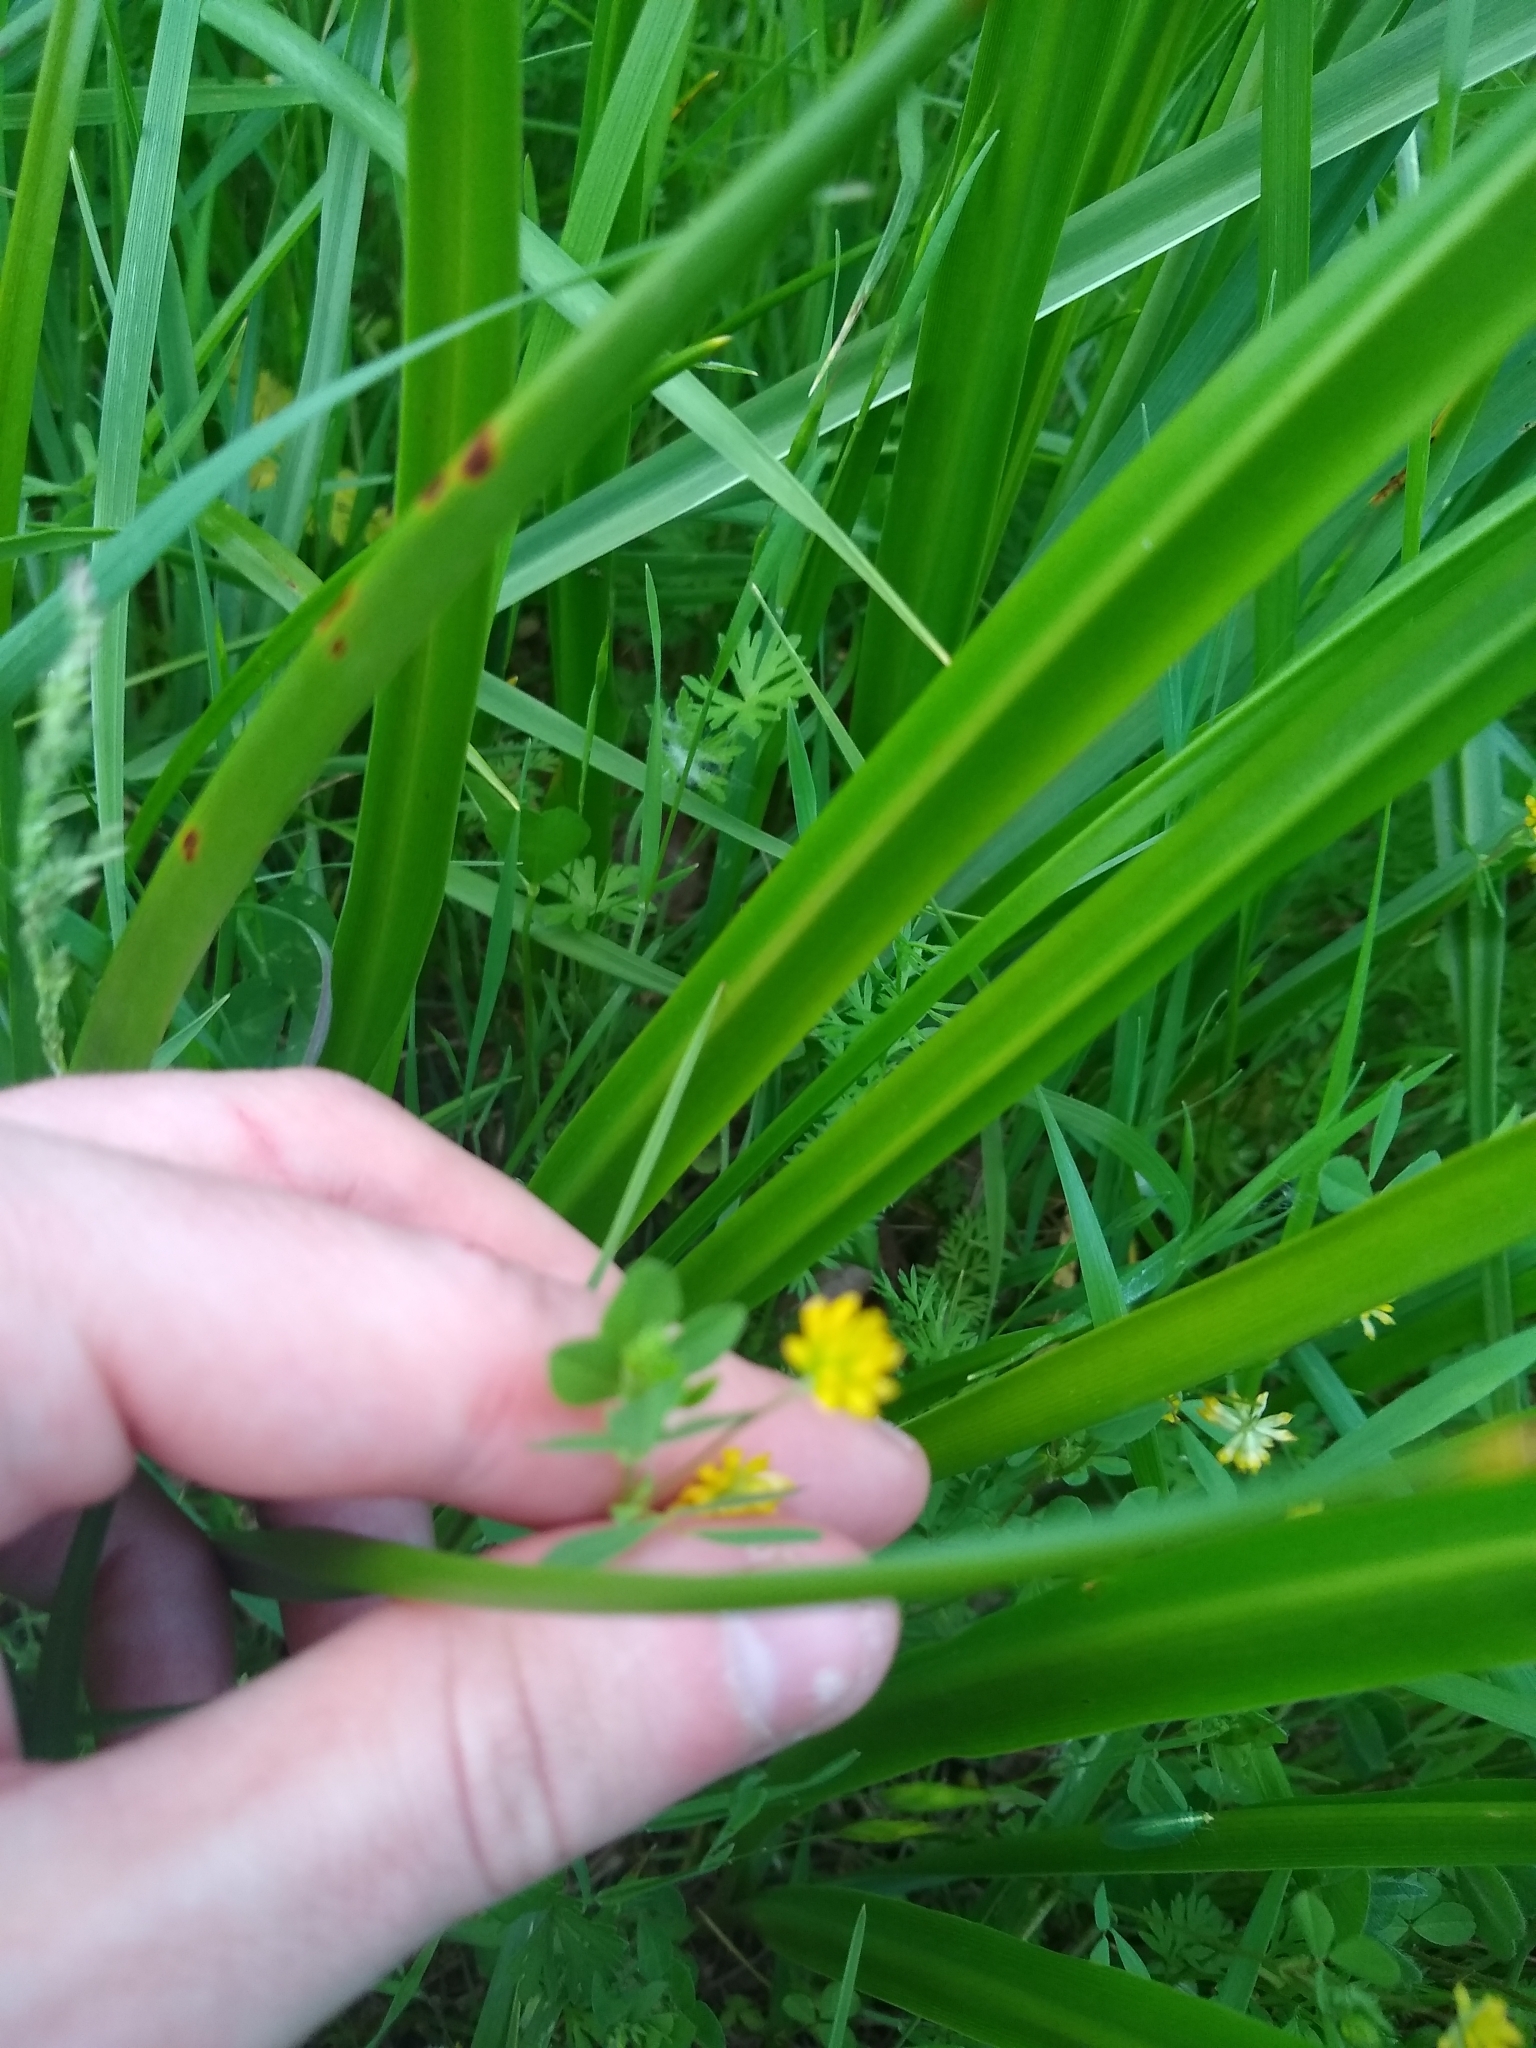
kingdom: Plantae
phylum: Tracheophyta
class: Magnoliopsida
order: Fabales
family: Fabaceae
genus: Trifolium
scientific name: Trifolium dubium
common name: Suckling clover
